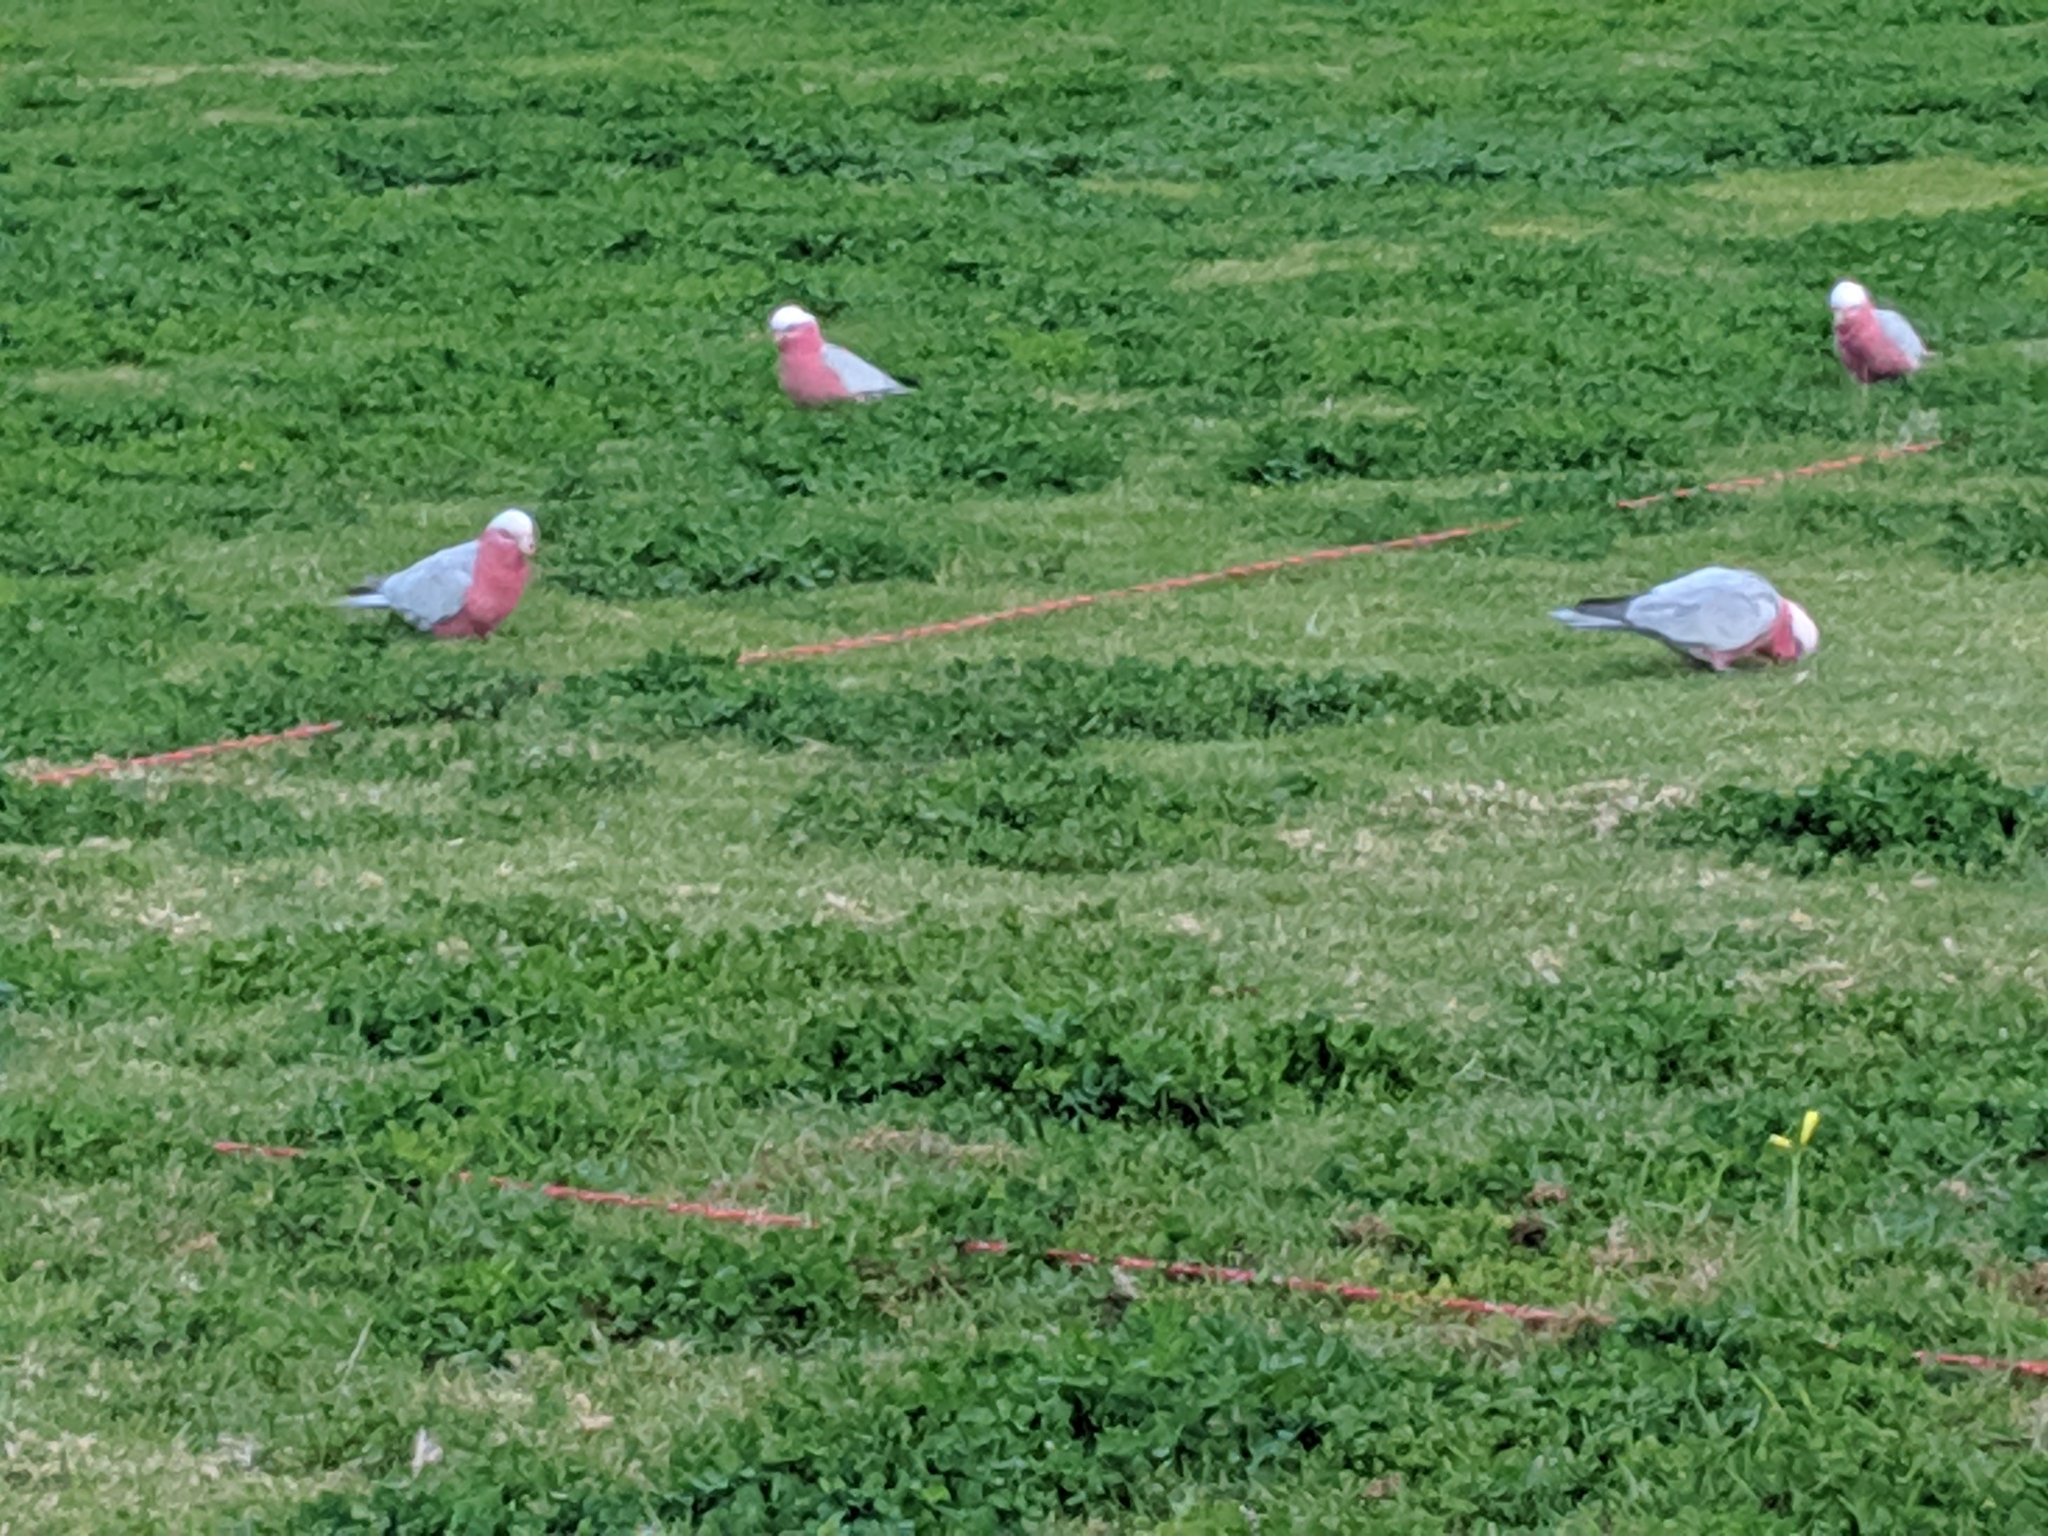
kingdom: Animalia
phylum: Chordata
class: Aves
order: Psittaciformes
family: Psittacidae
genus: Eolophus
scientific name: Eolophus roseicapilla
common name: Galah
